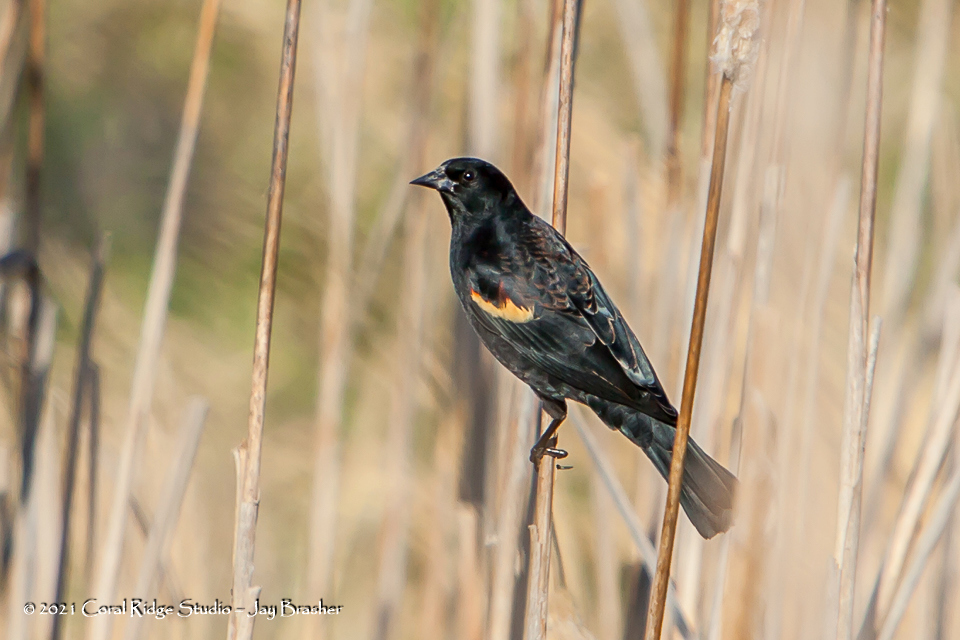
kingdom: Animalia
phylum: Chordata
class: Aves
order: Passeriformes
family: Icteridae
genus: Agelaius
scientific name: Agelaius phoeniceus
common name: Red-winged blackbird
